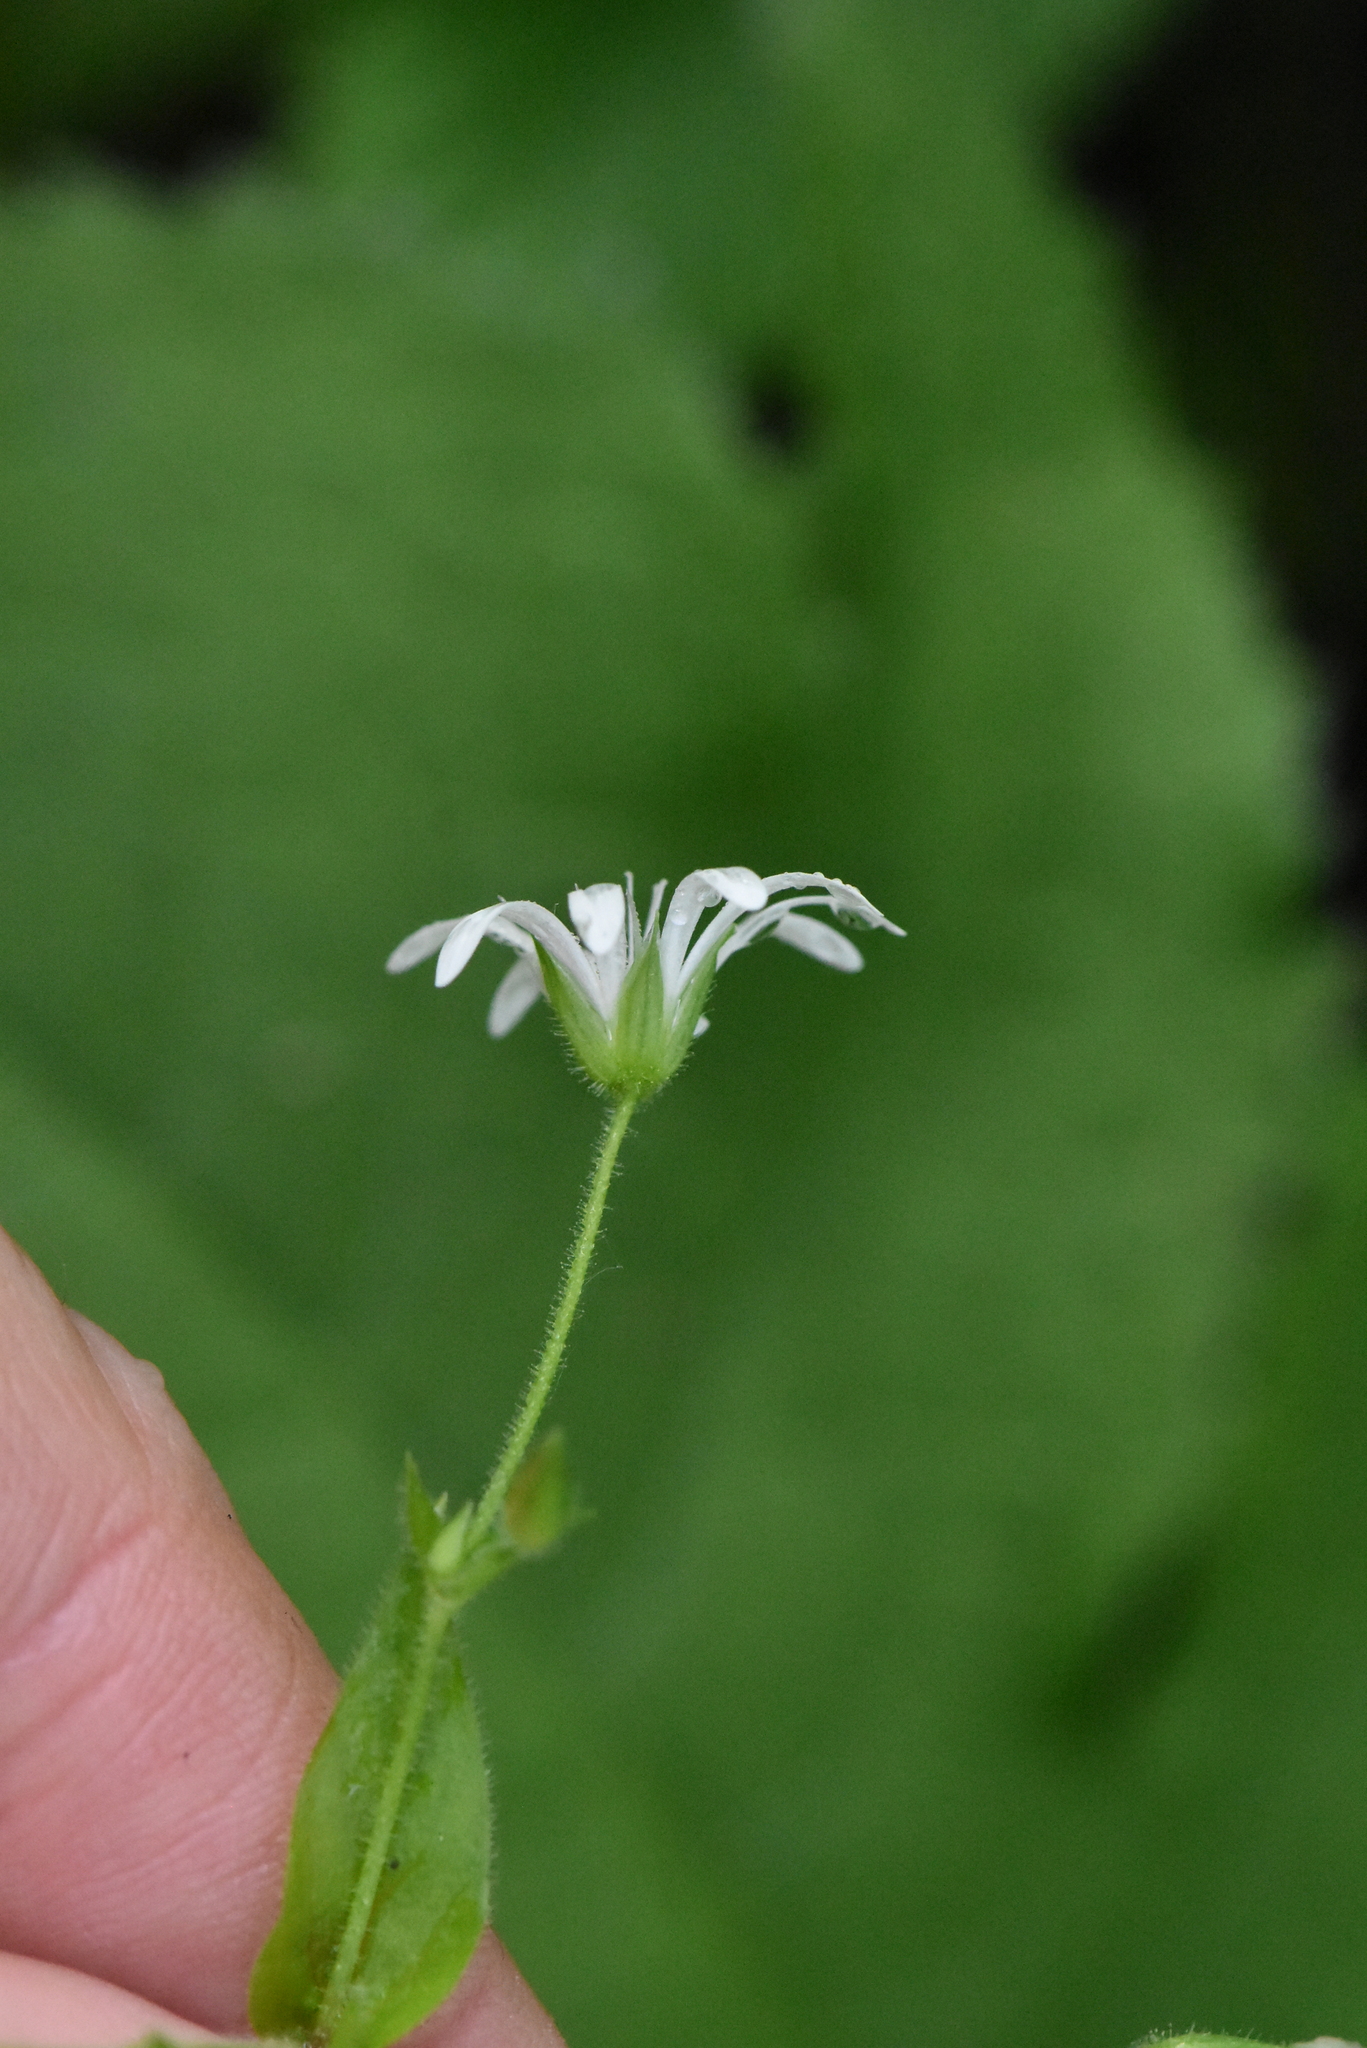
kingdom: Plantae
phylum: Tracheophyta
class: Magnoliopsida
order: Caryophyllales
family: Caryophyllaceae
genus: Stellaria
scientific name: Stellaria nemorum
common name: Wood stitchwort
